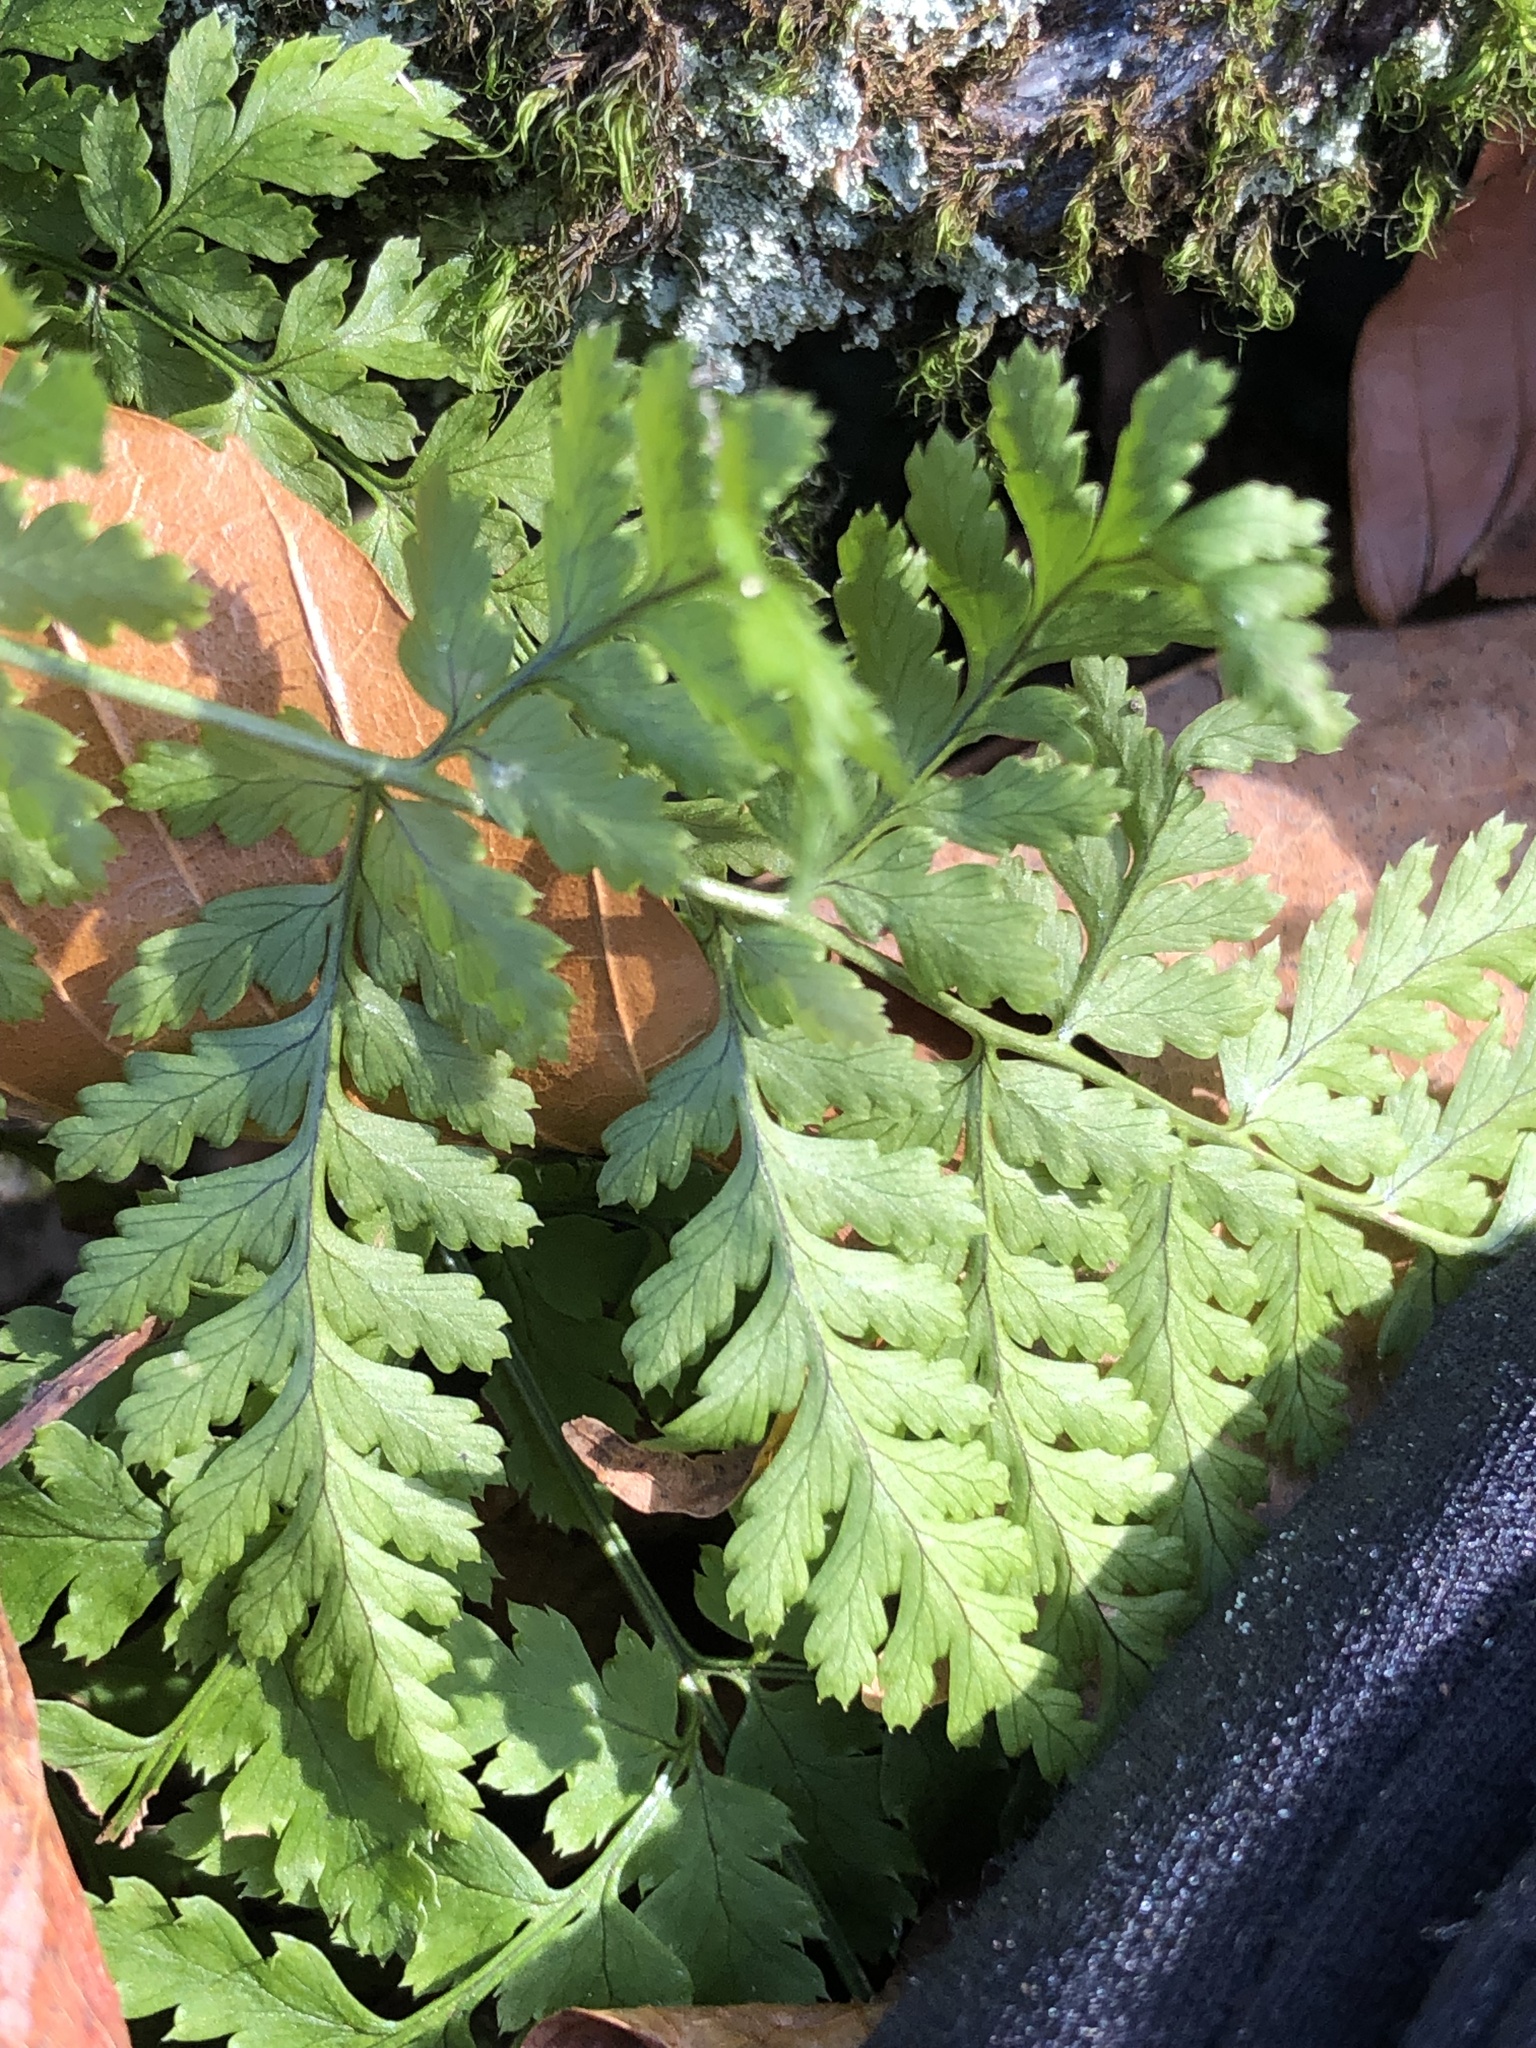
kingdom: Plantae
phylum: Tracheophyta
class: Polypodiopsida
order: Polypodiales
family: Dryopteridaceae
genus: Dryopteris
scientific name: Dryopteris intermedia
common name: Evergreen wood fern
